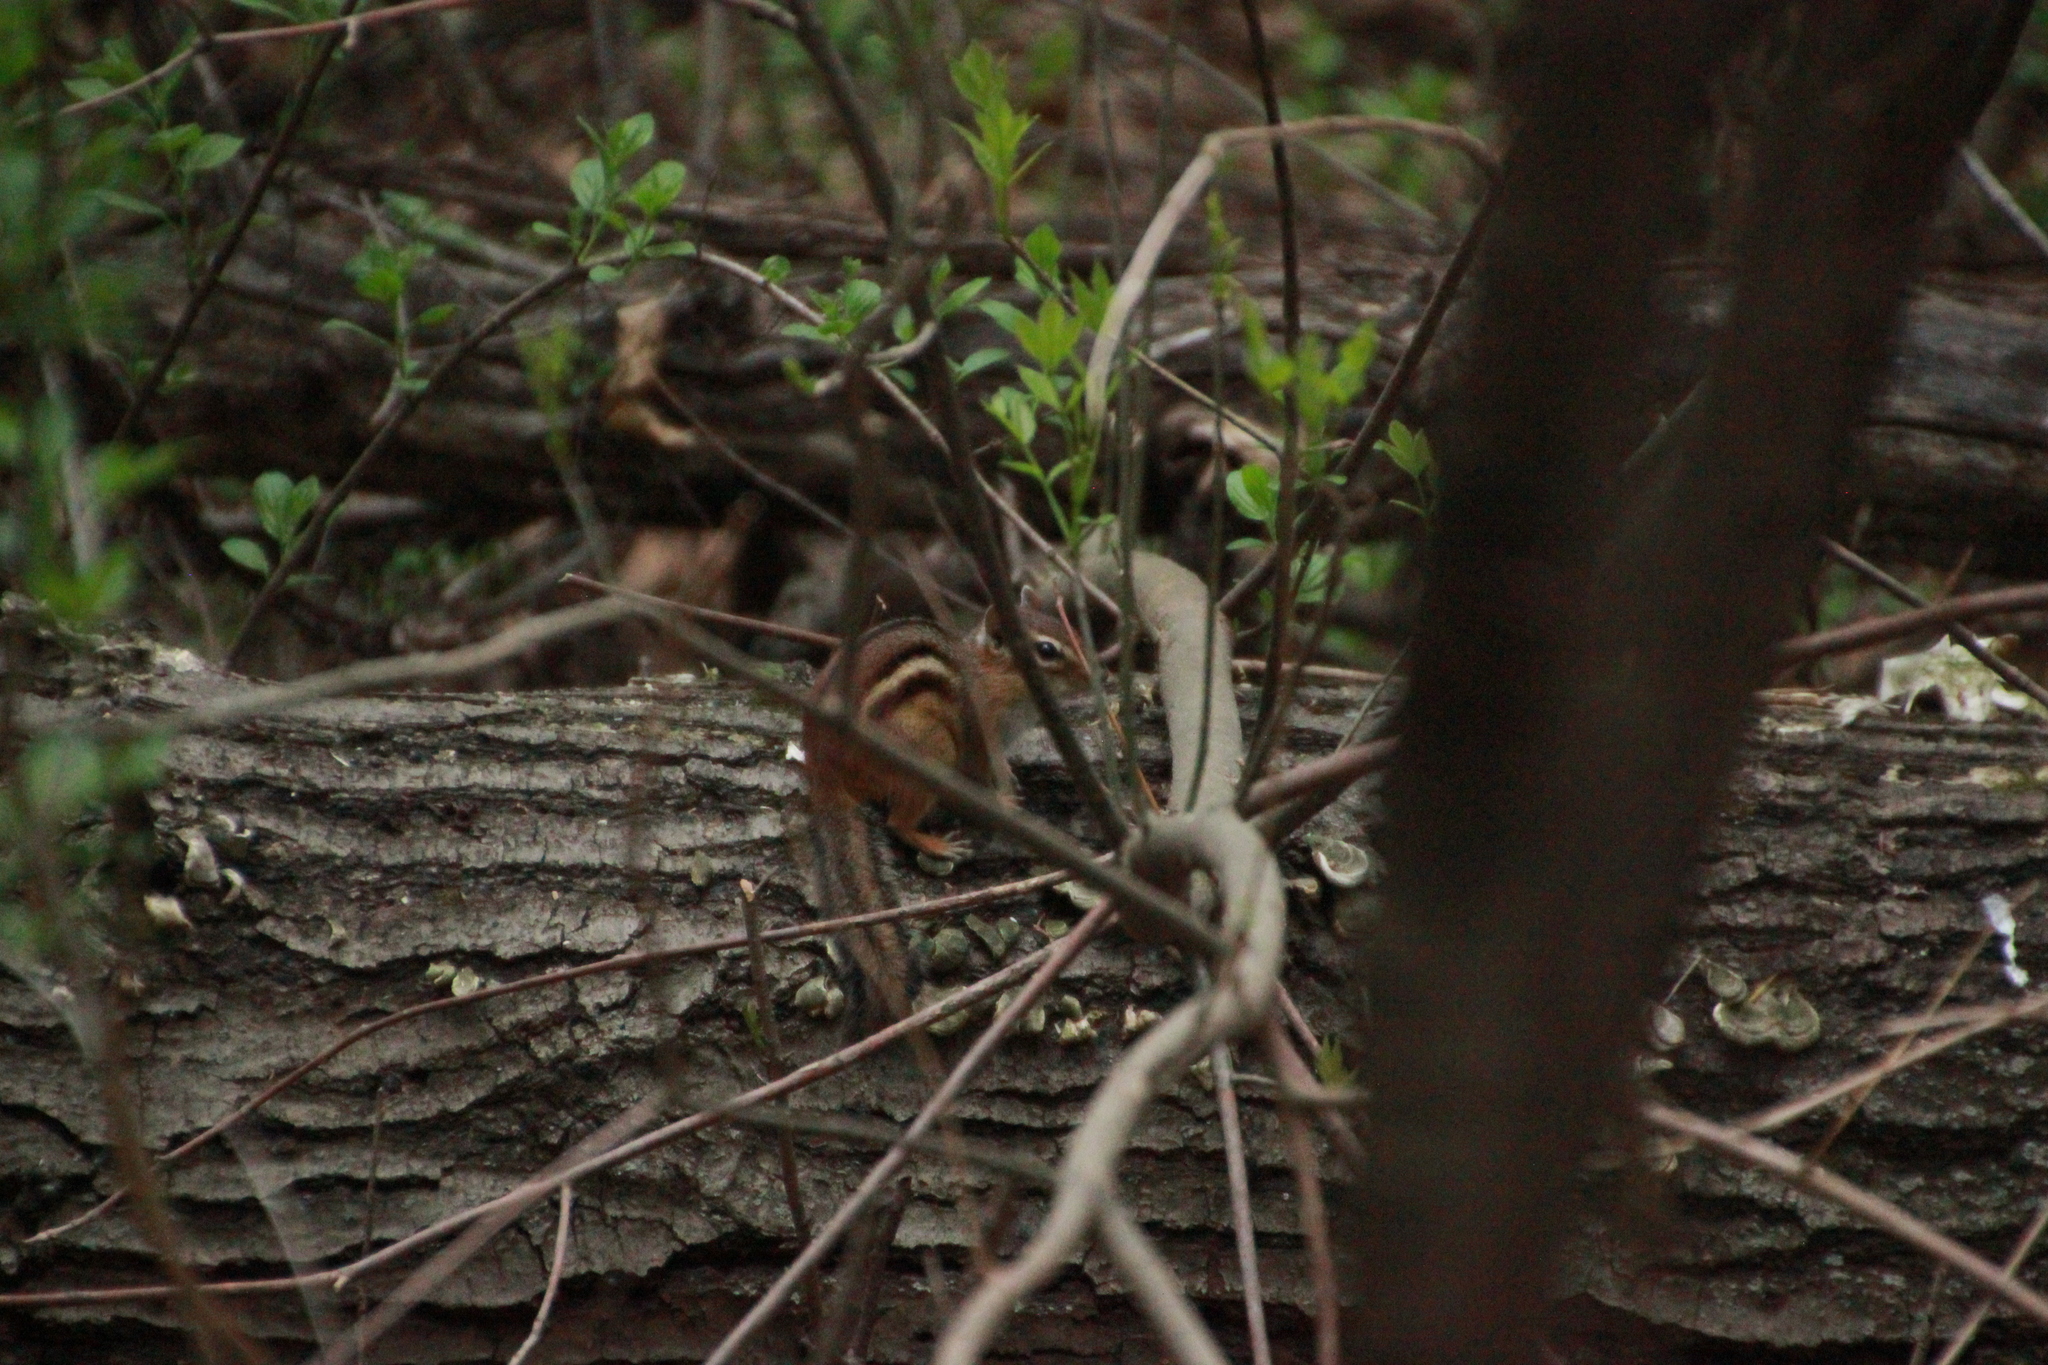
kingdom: Animalia
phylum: Chordata
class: Mammalia
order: Rodentia
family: Sciuridae
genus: Tamias
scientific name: Tamias striatus
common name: Eastern chipmunk
